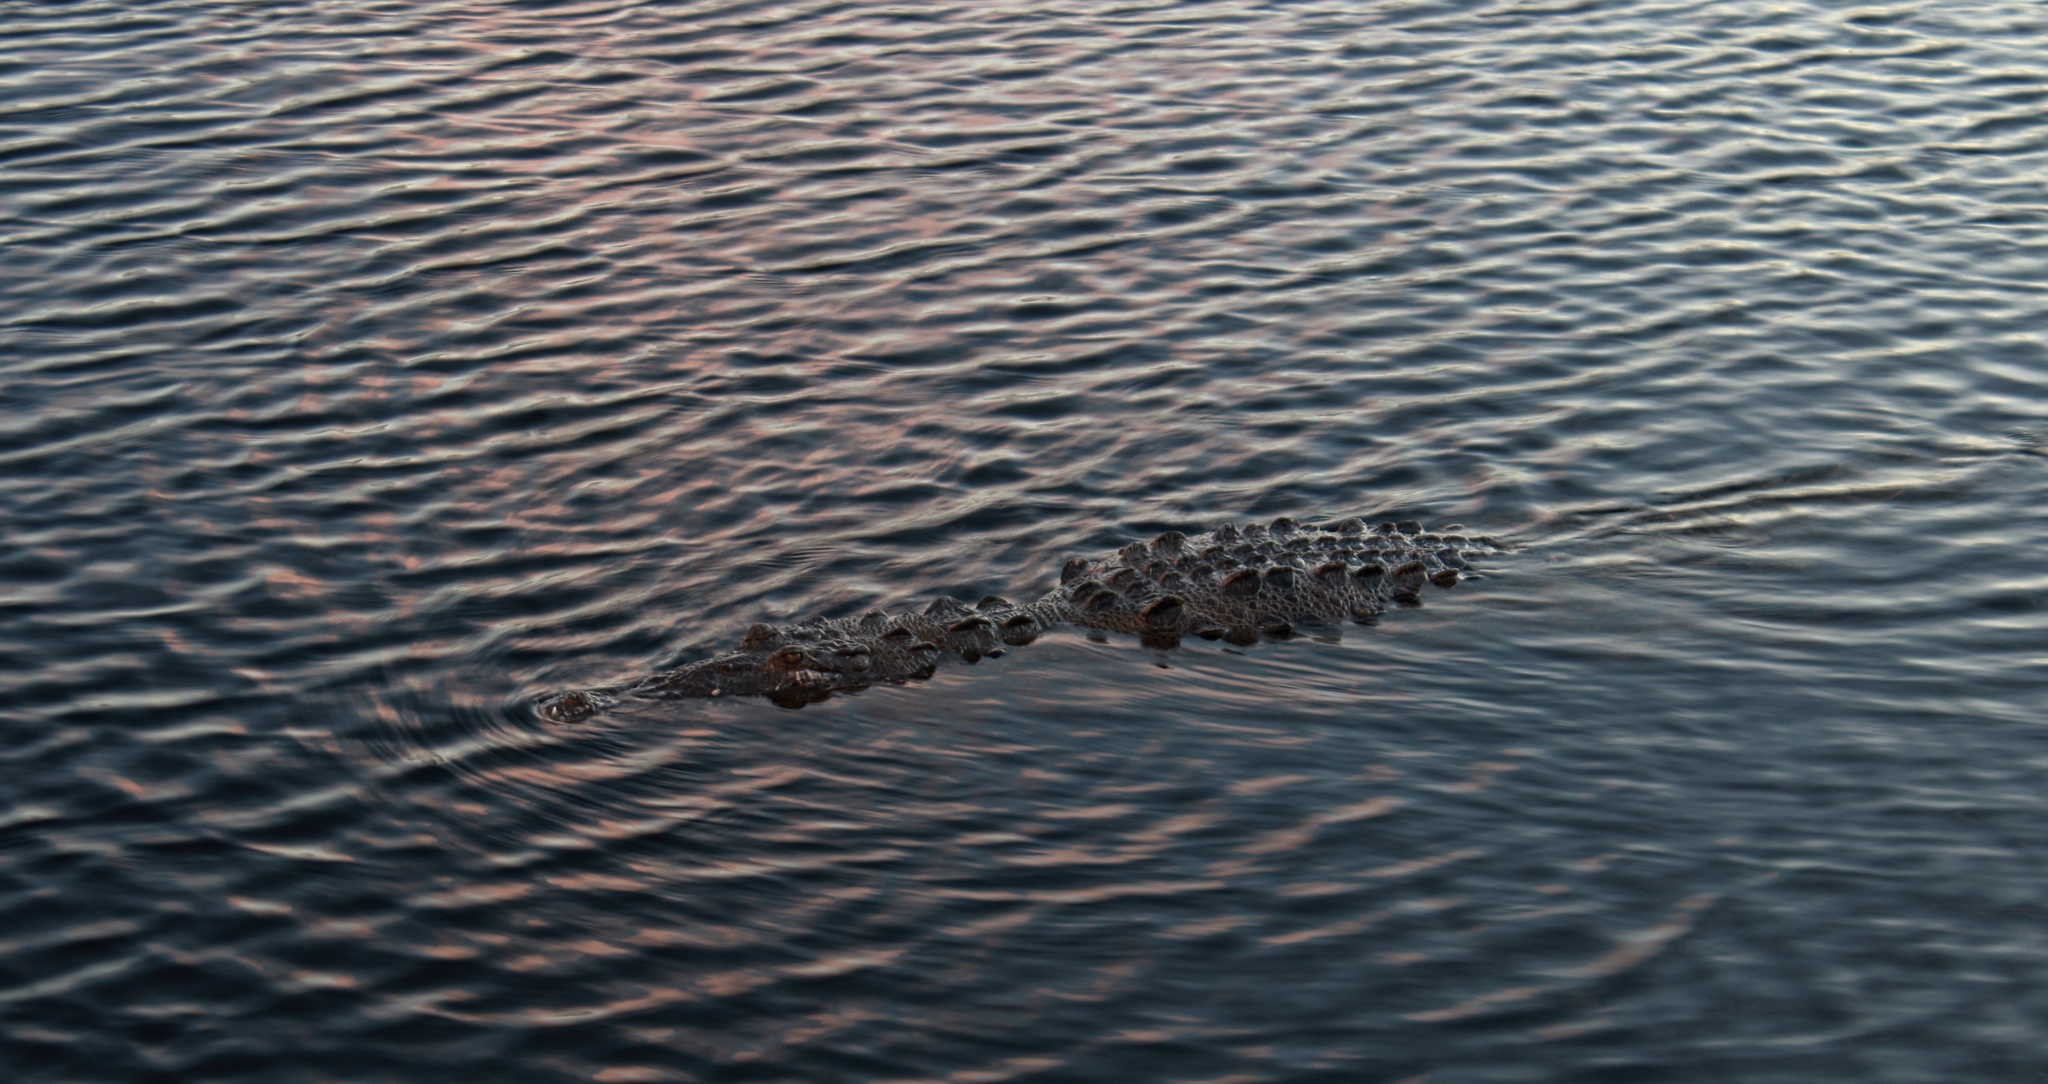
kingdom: Animalia
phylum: Chordata
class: Crocodylia
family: Crocodylidae
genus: Crocodylus
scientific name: Crocodylus acutus
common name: American crocodile
